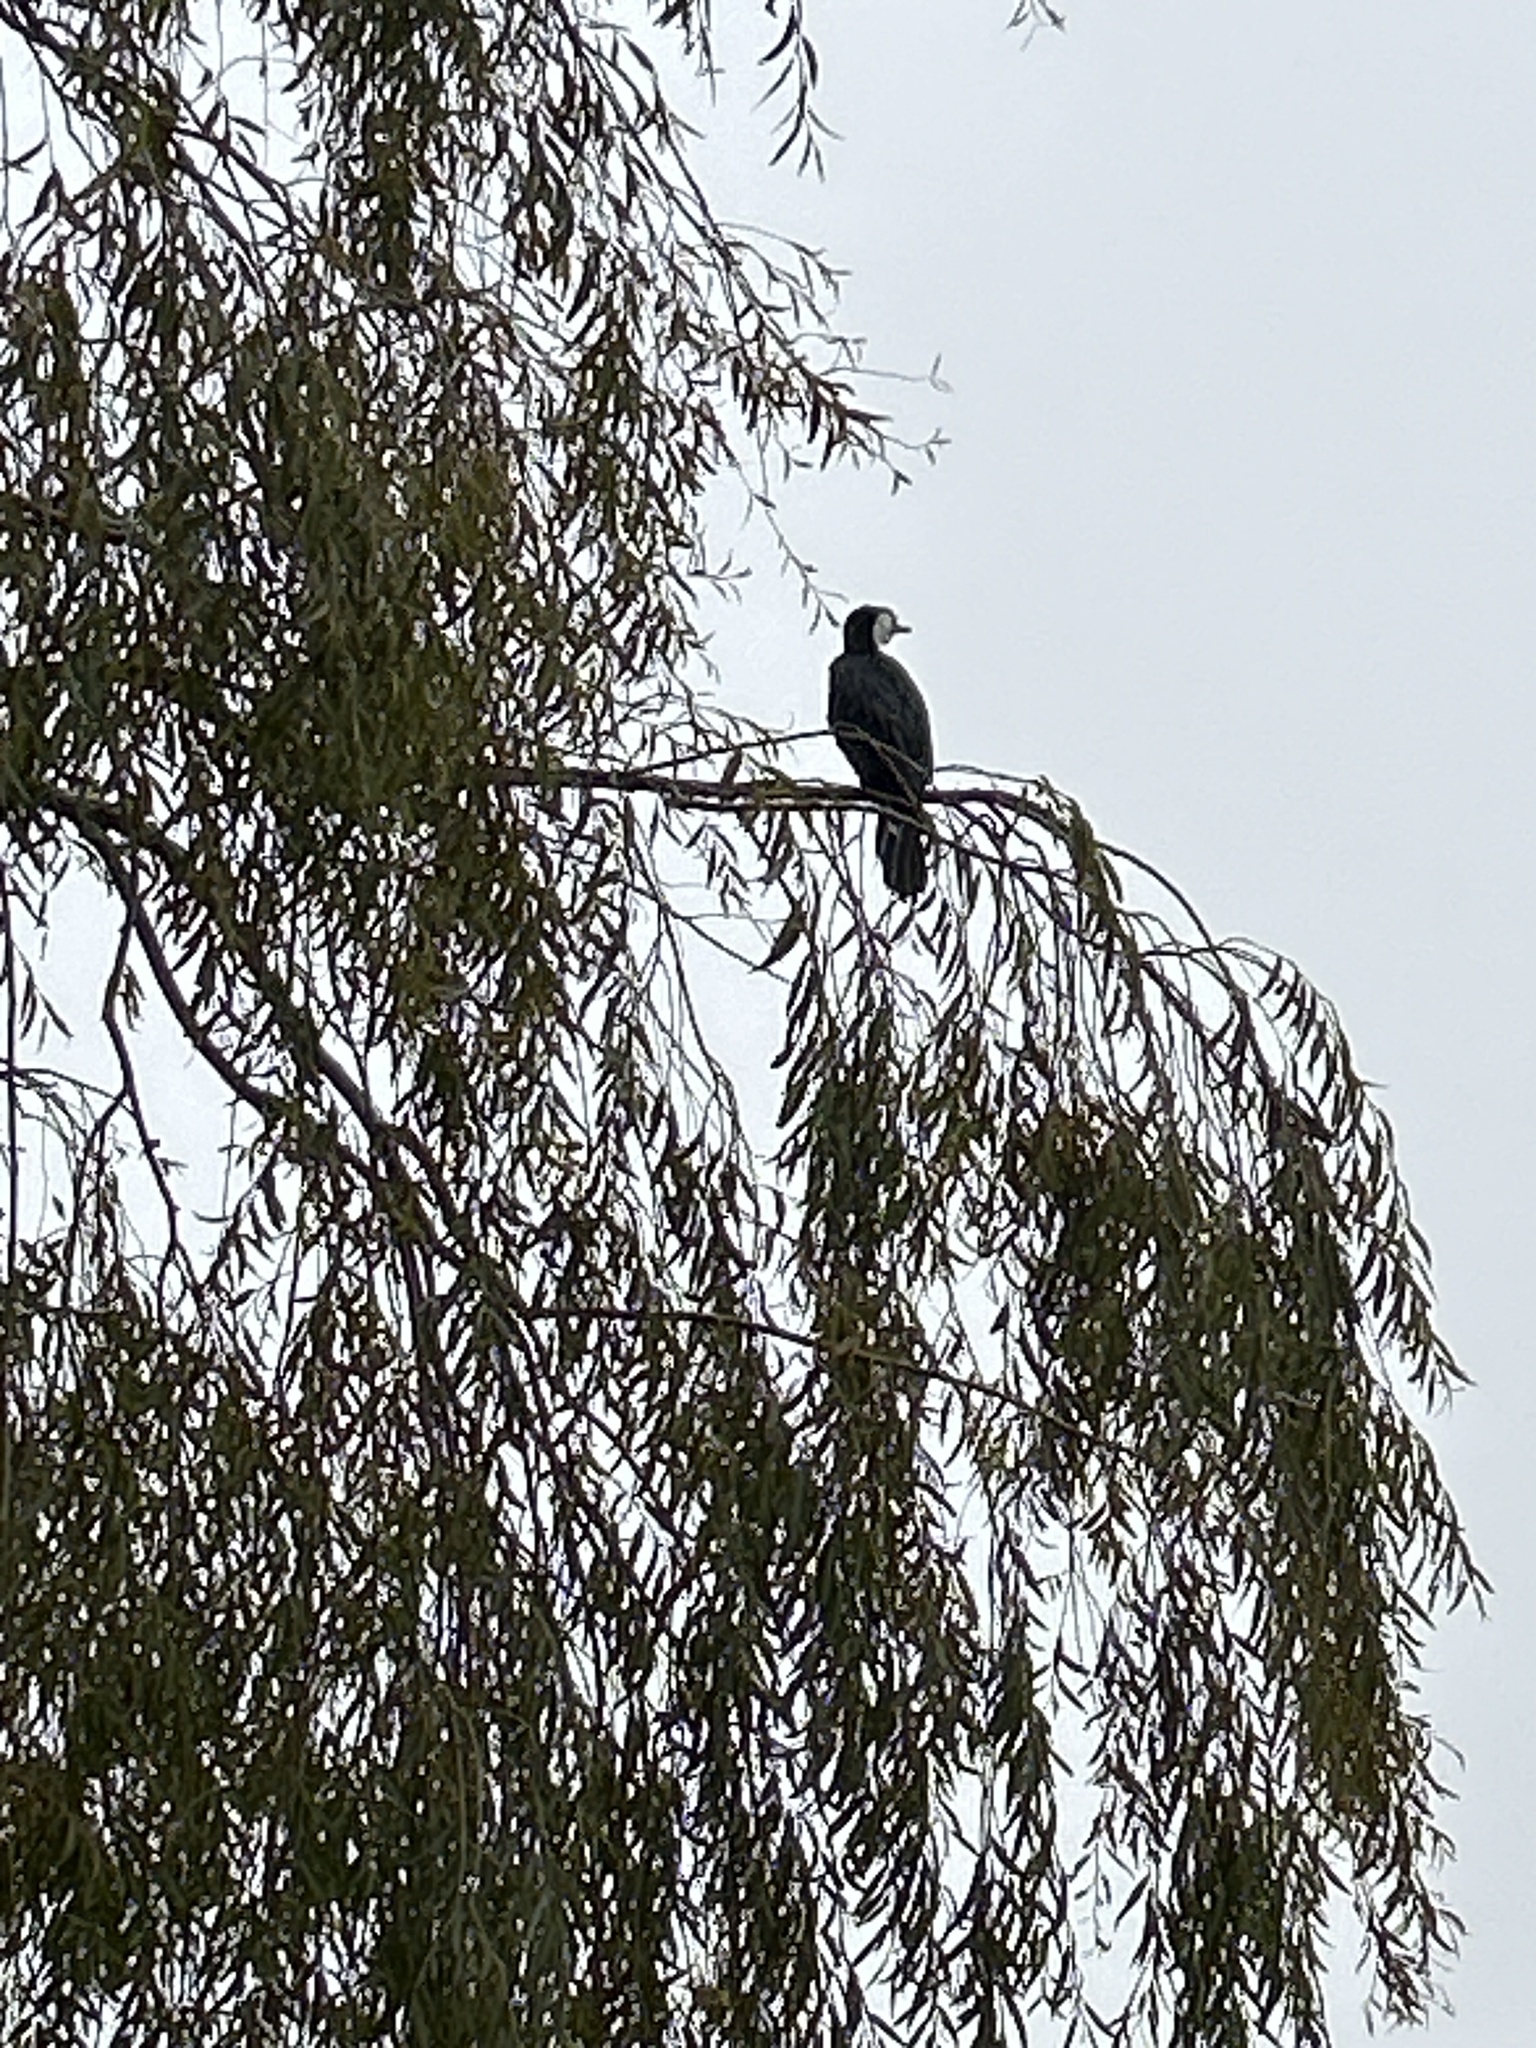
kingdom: Animalia
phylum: Chordata
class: Aves
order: Suliformes
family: Phalacrocoracidae
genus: Microcarbo
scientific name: Microcarbo melanoleucos
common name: Little pied cormorant
